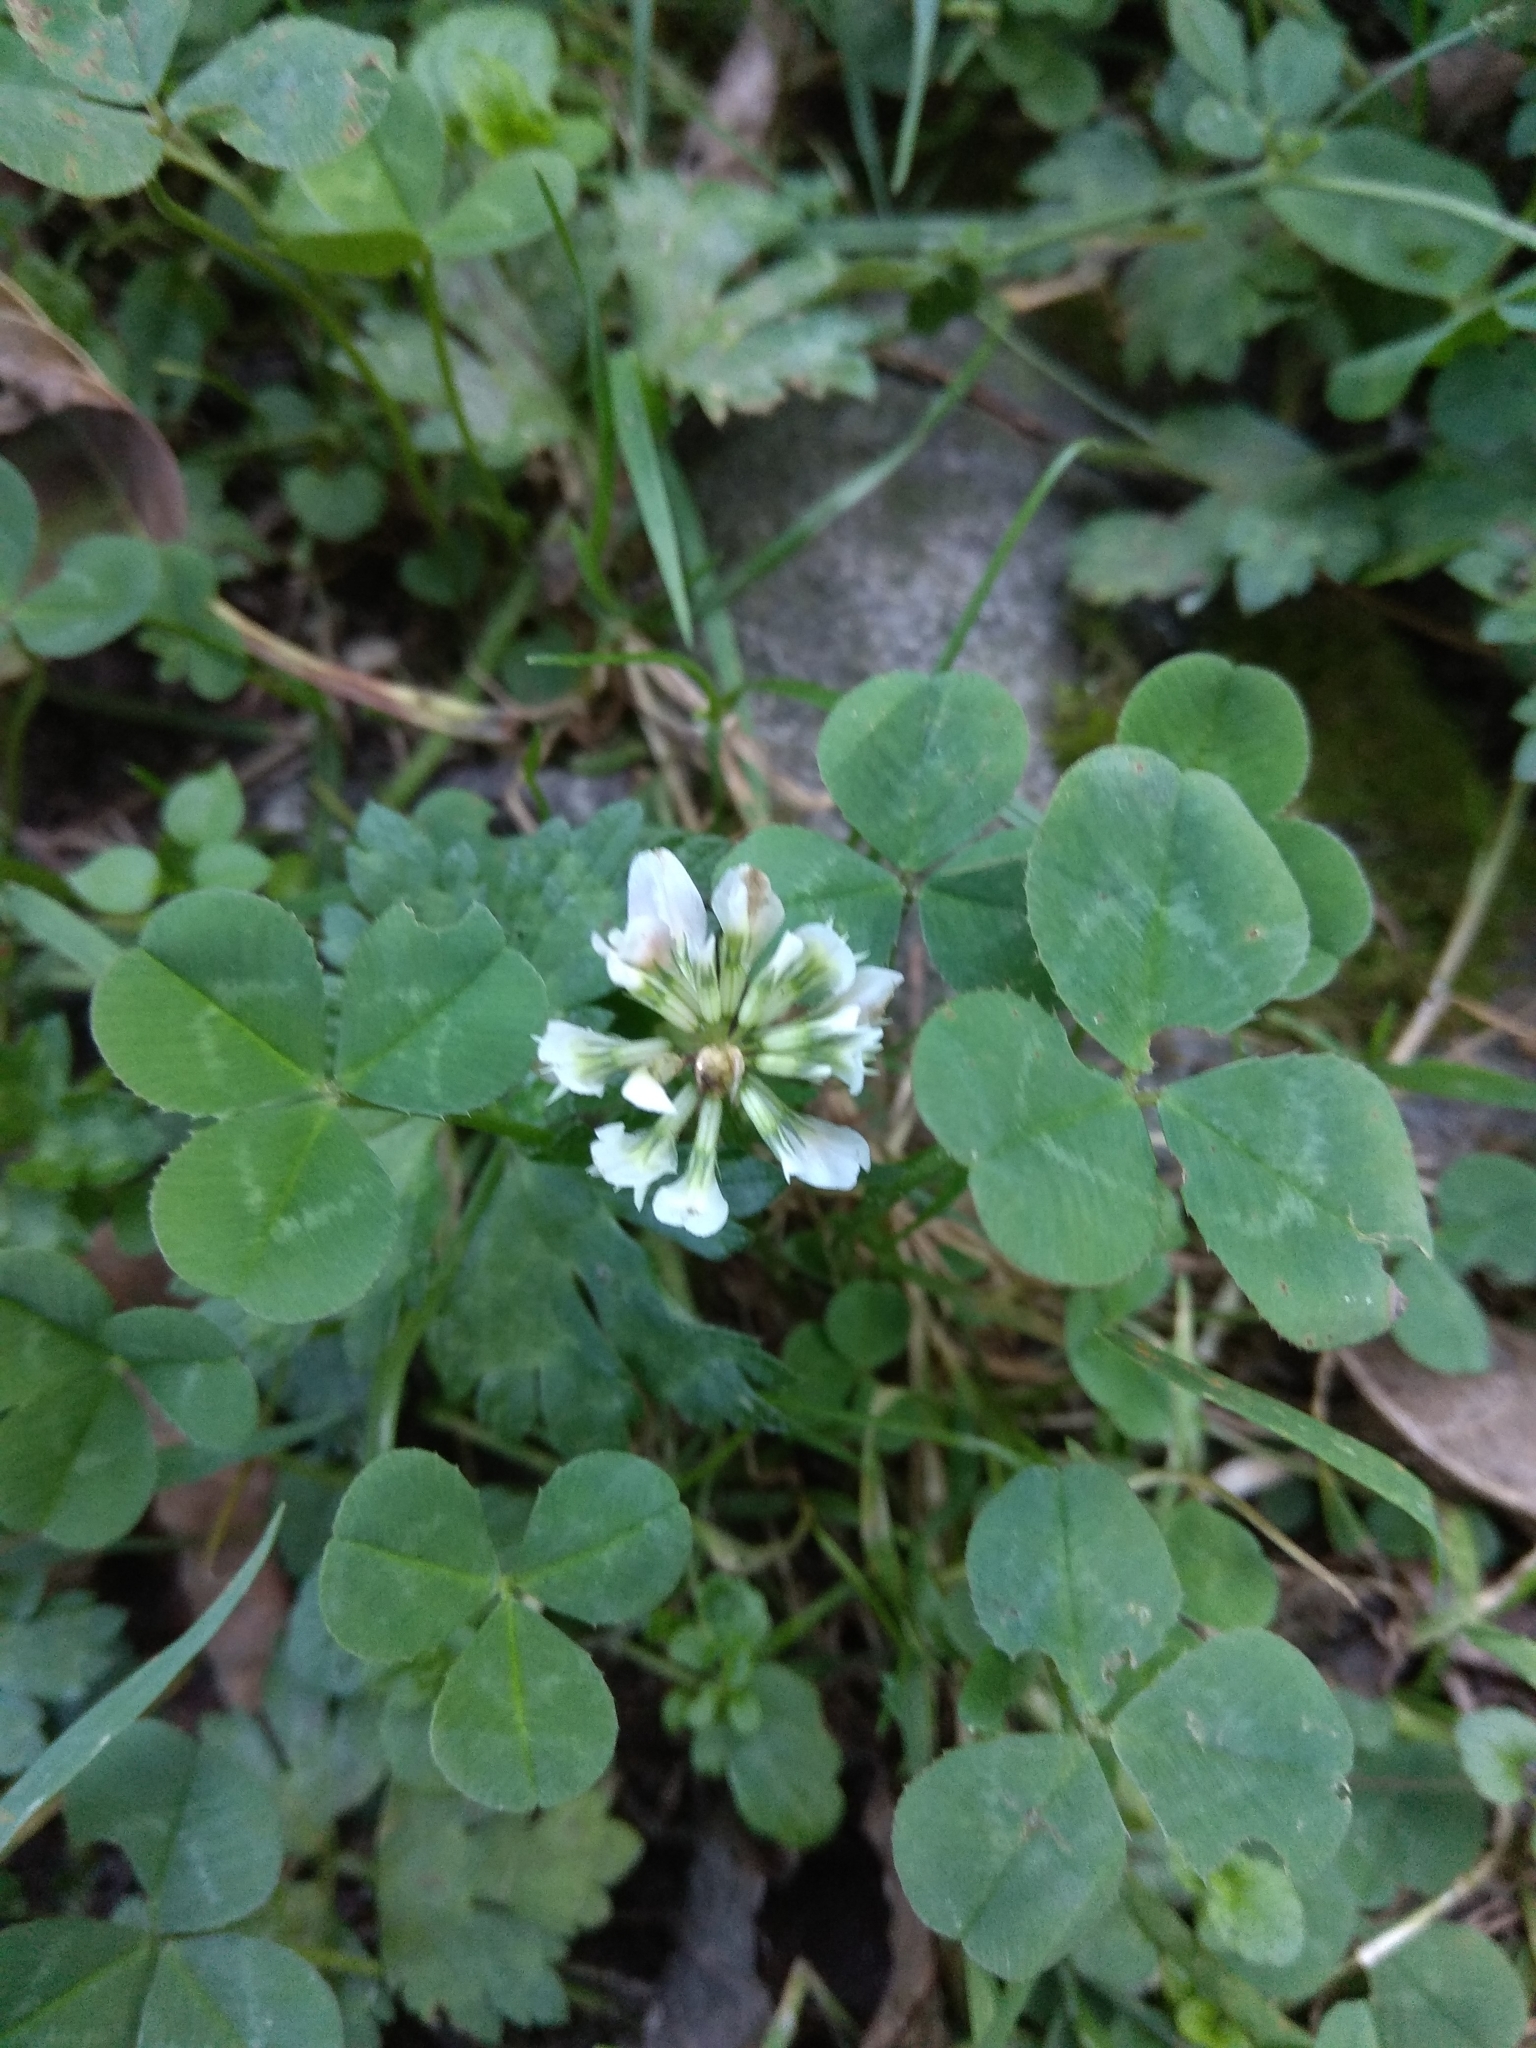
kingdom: Plantae
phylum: Tracheophyta
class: Magnoliopsida
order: Fabales
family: Fabaceae
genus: Trifolium
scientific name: Trifolium repens
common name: White clover
